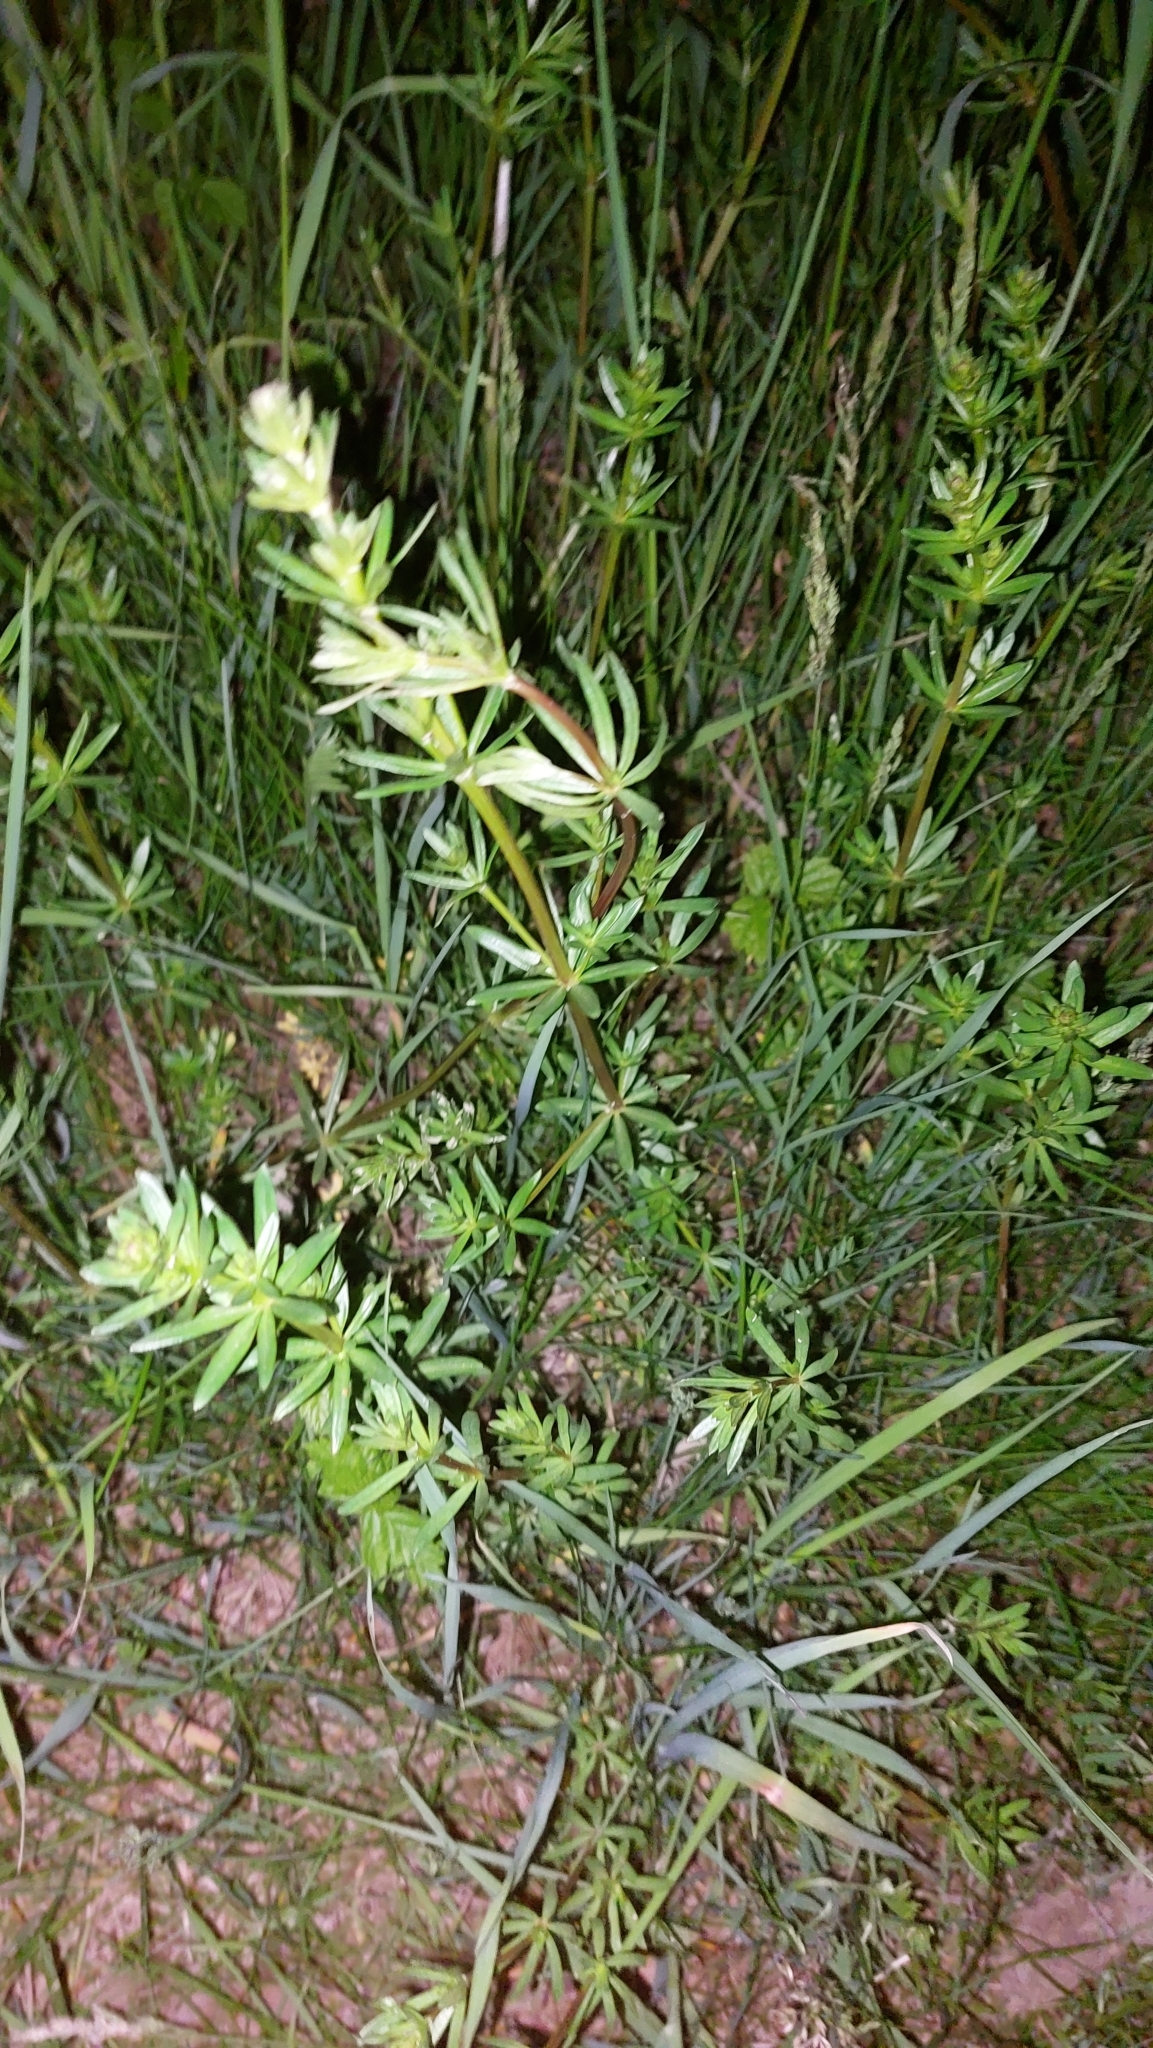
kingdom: Plantae
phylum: Tracheophyta
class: Magnoliopsida
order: Gentianales
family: Rubiaceae
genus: Galium
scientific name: Galium album
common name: White bedstraw
